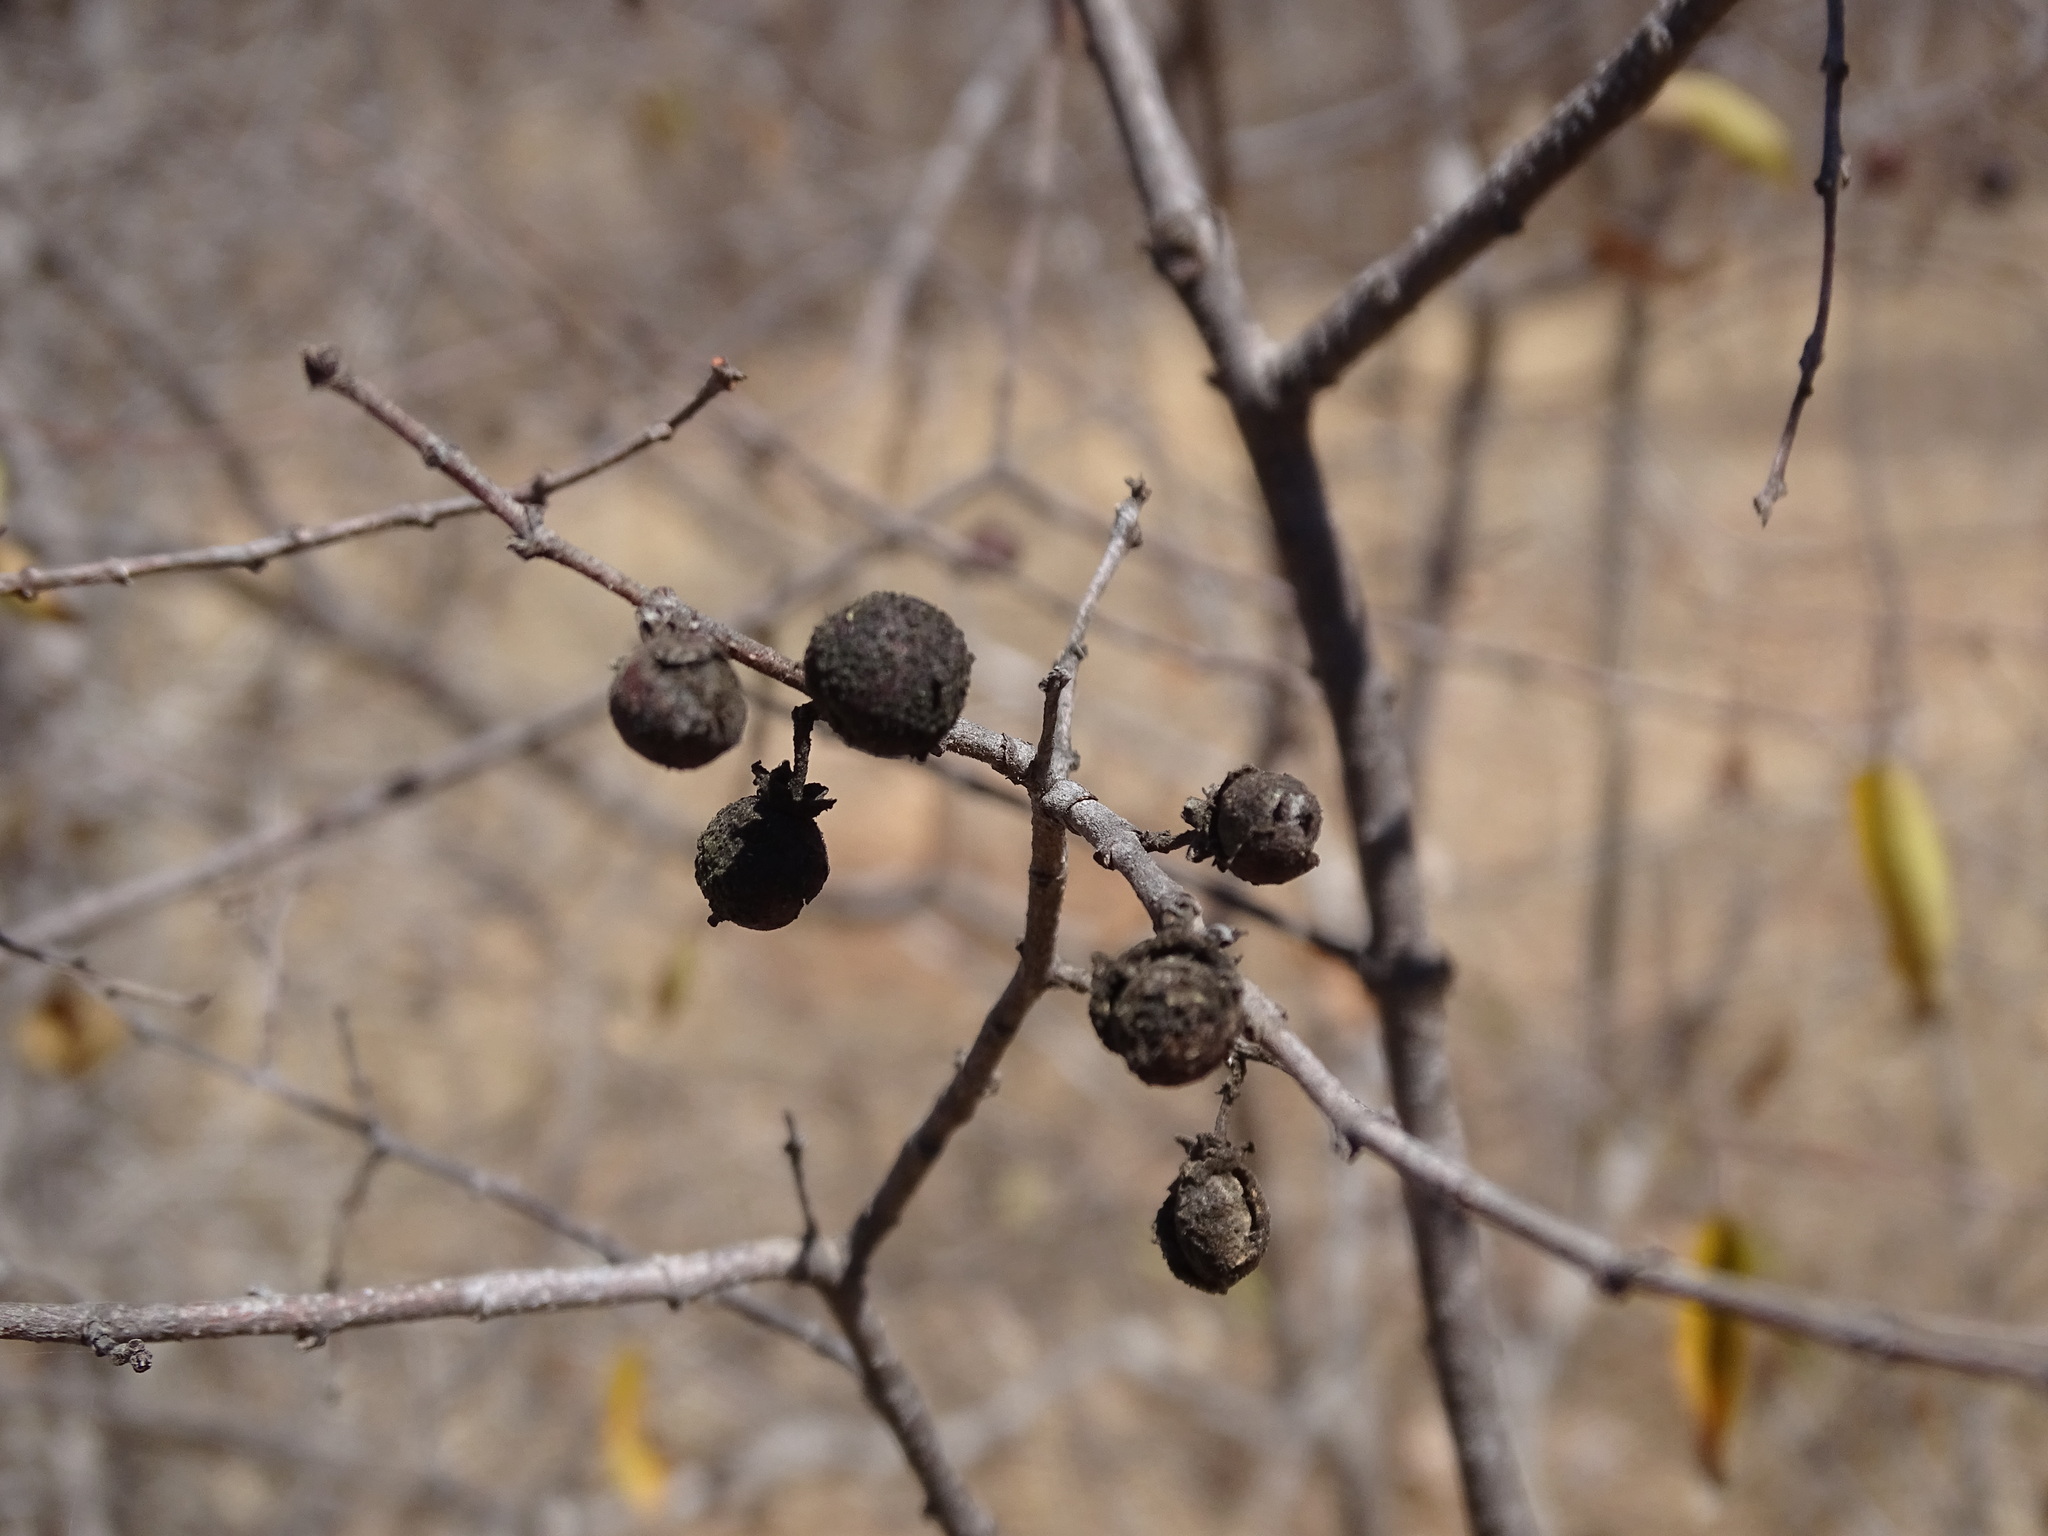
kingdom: Plantae
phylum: Tracheophyta
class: Magnoliopsida
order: Rosales
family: Rhamnaceae
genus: Karwinskia
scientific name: Karwinskia humboldtiana
